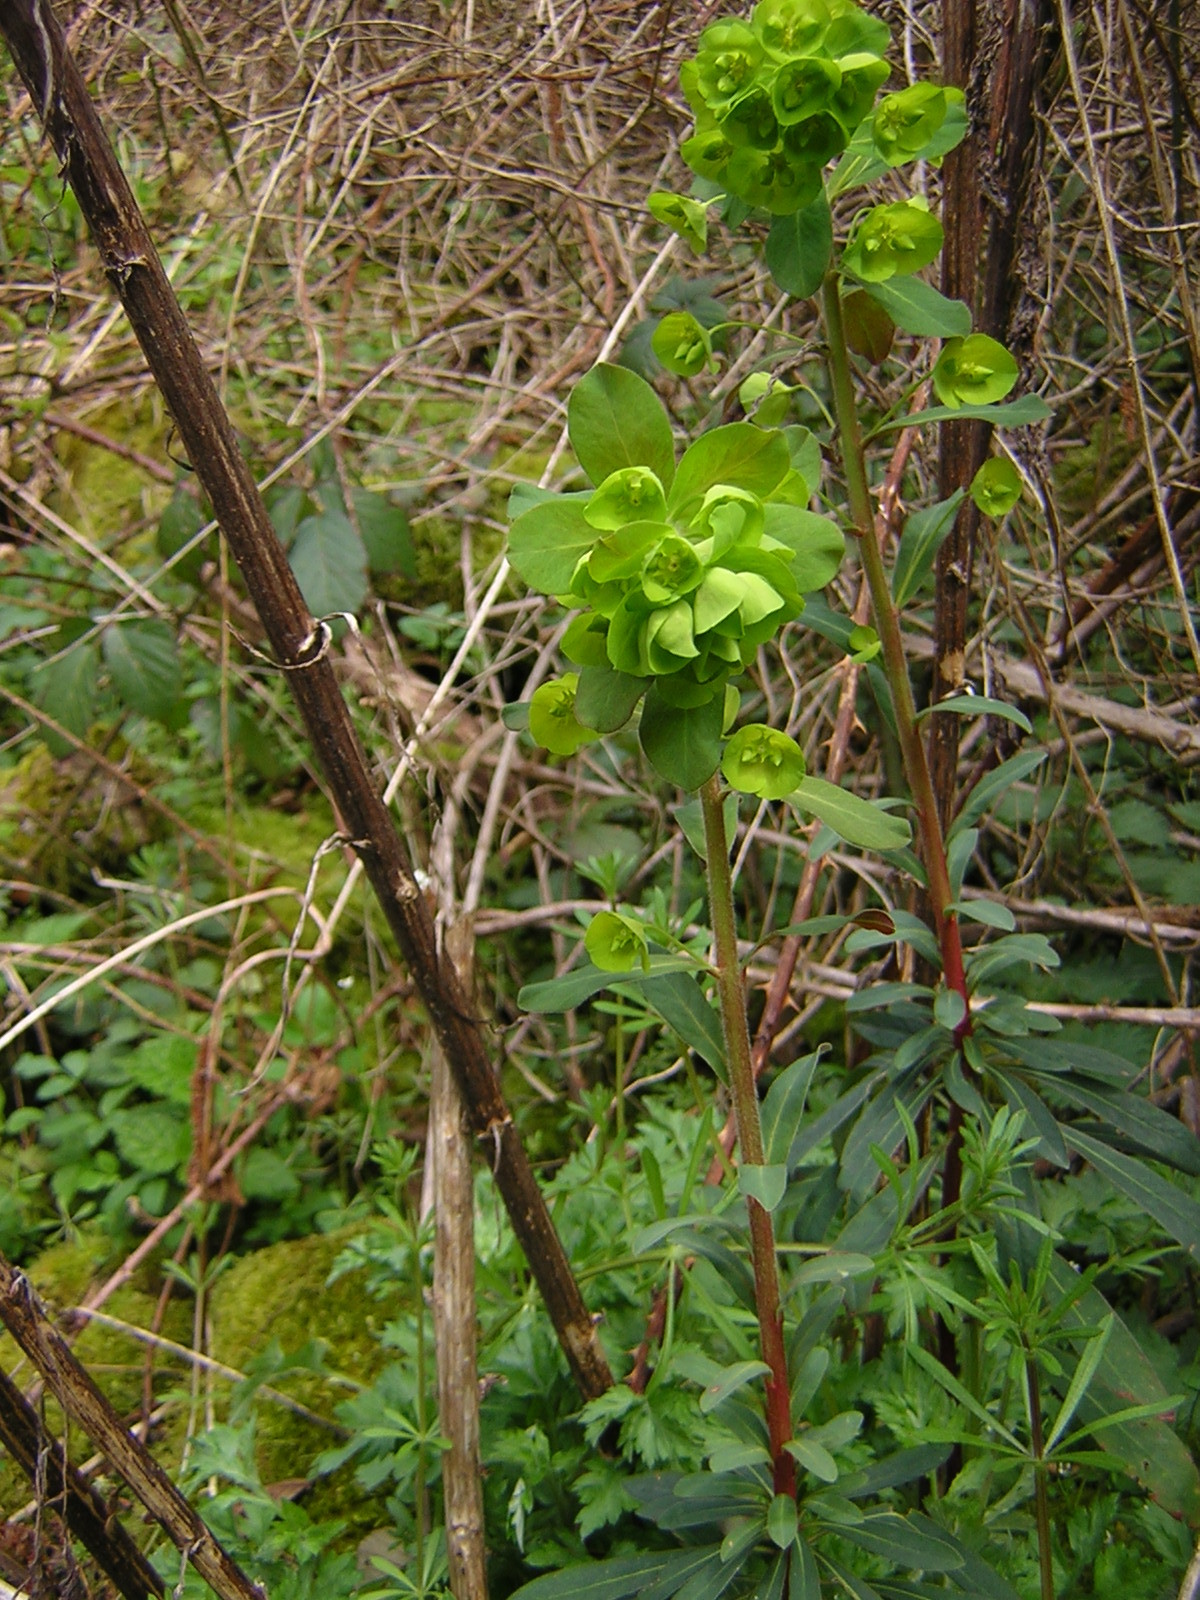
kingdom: Plantae
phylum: Tracheophyta
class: Magnoliopsida
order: Malpighiales
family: Euphorbiaceae
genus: Euphorbia
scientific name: Euphorbia amygdaloides
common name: Wood spurge
